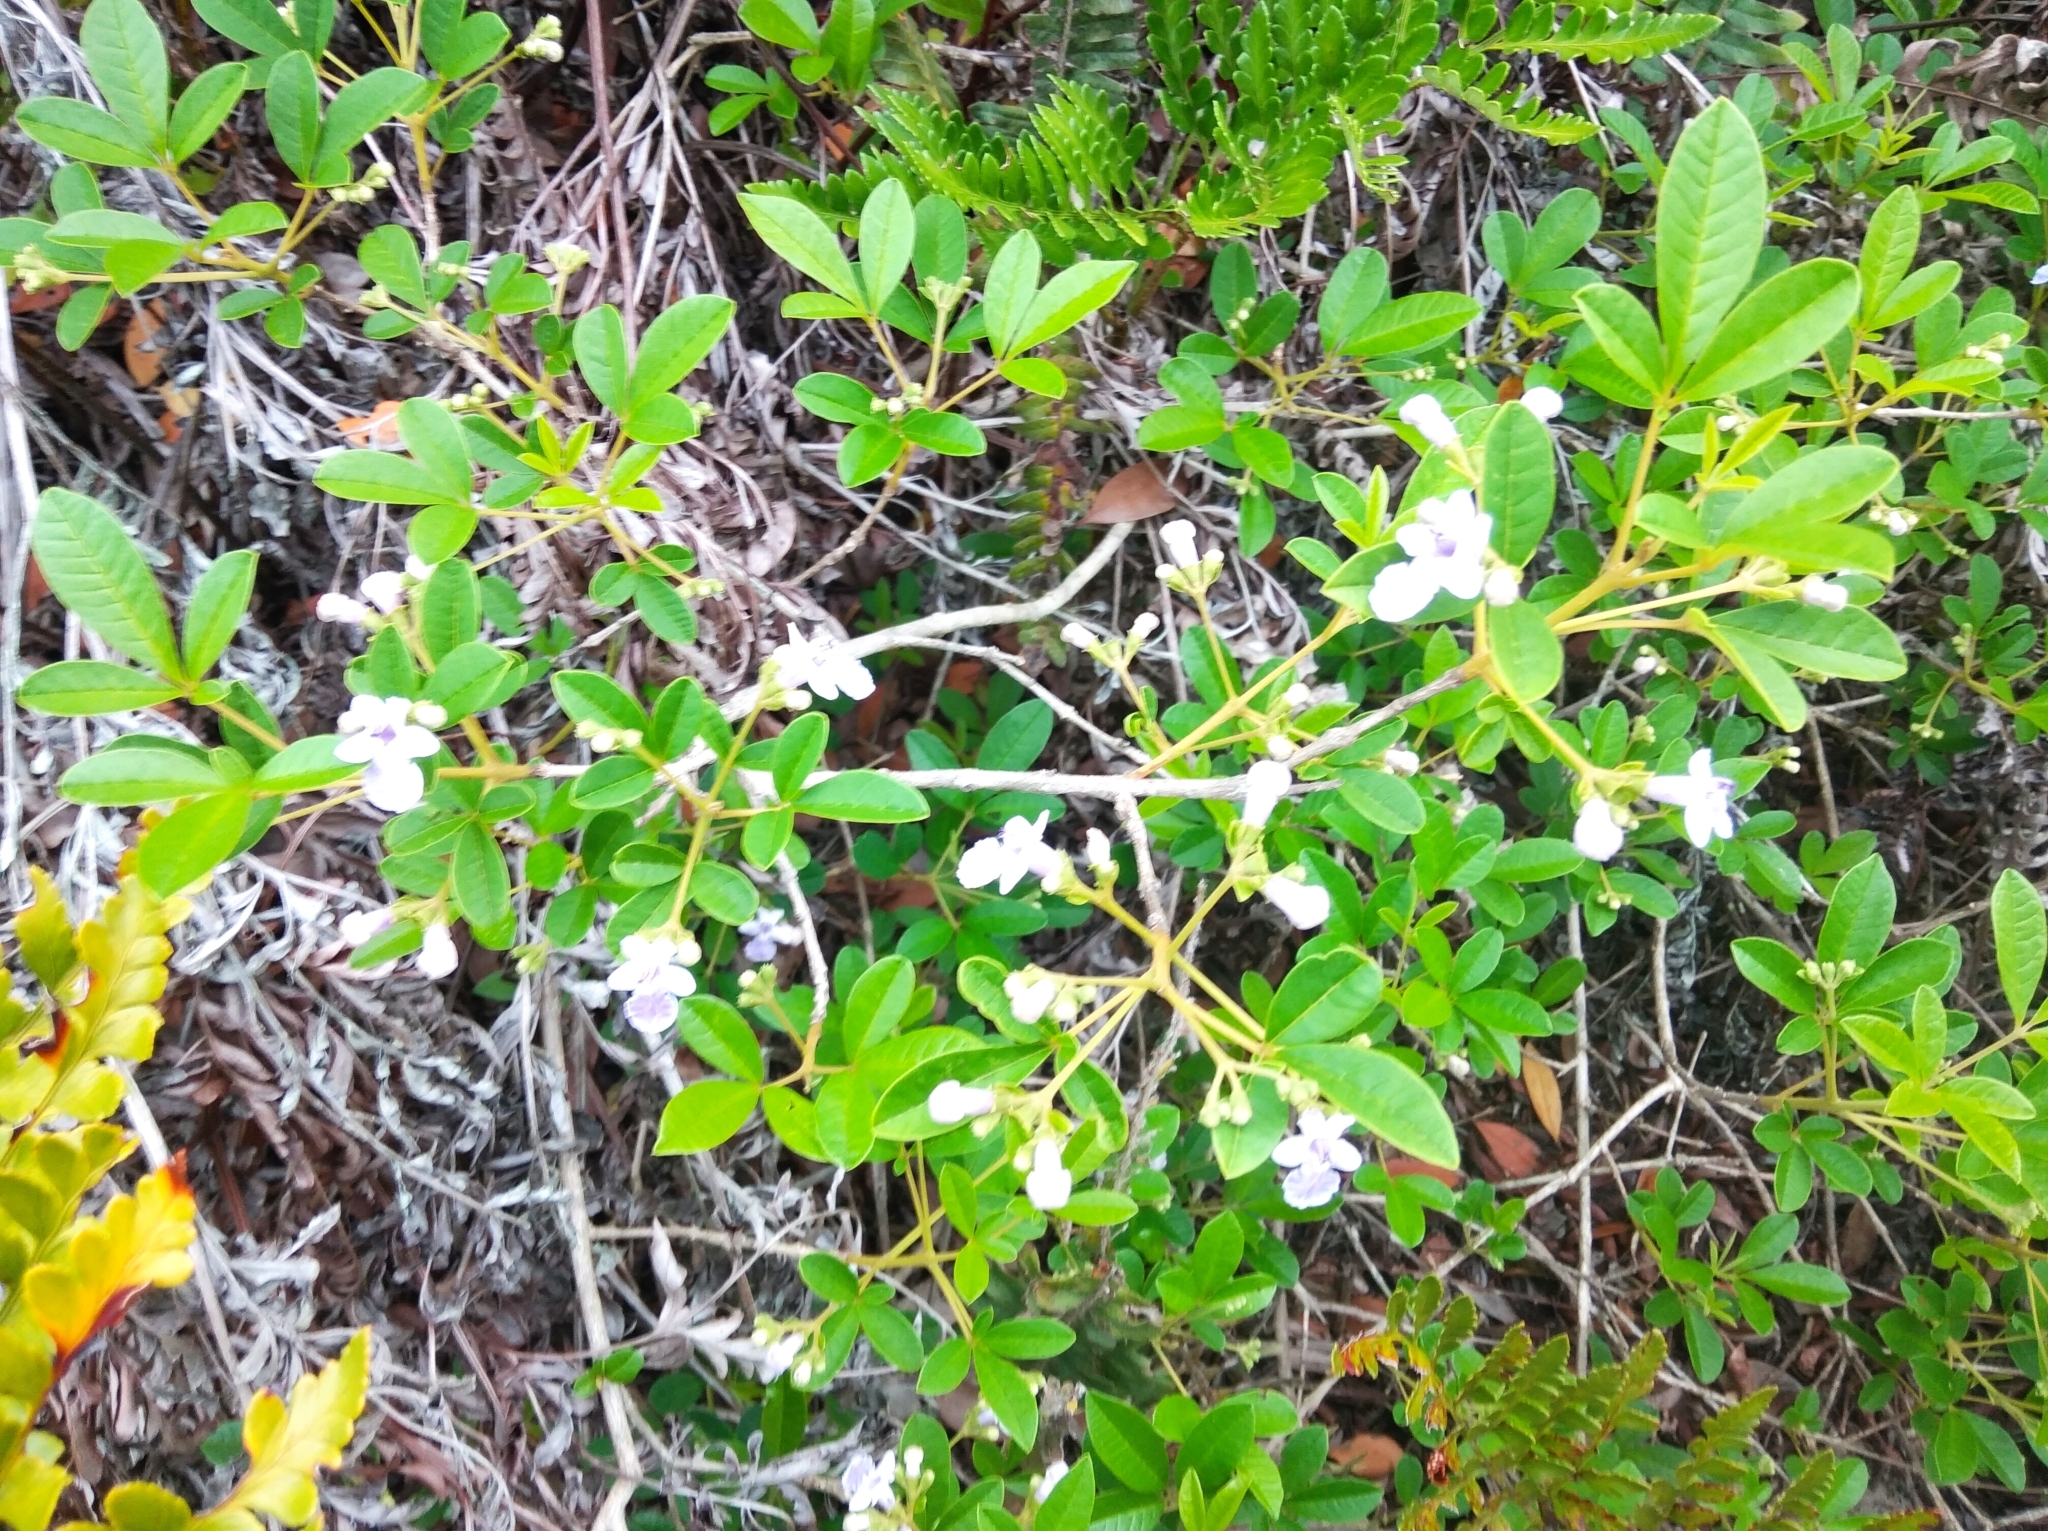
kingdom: Plantae
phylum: Tracheophyta
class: Magnoliopsida
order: Lamiales
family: Lamiaceae
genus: Vitex
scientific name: Vitex megapotamica
